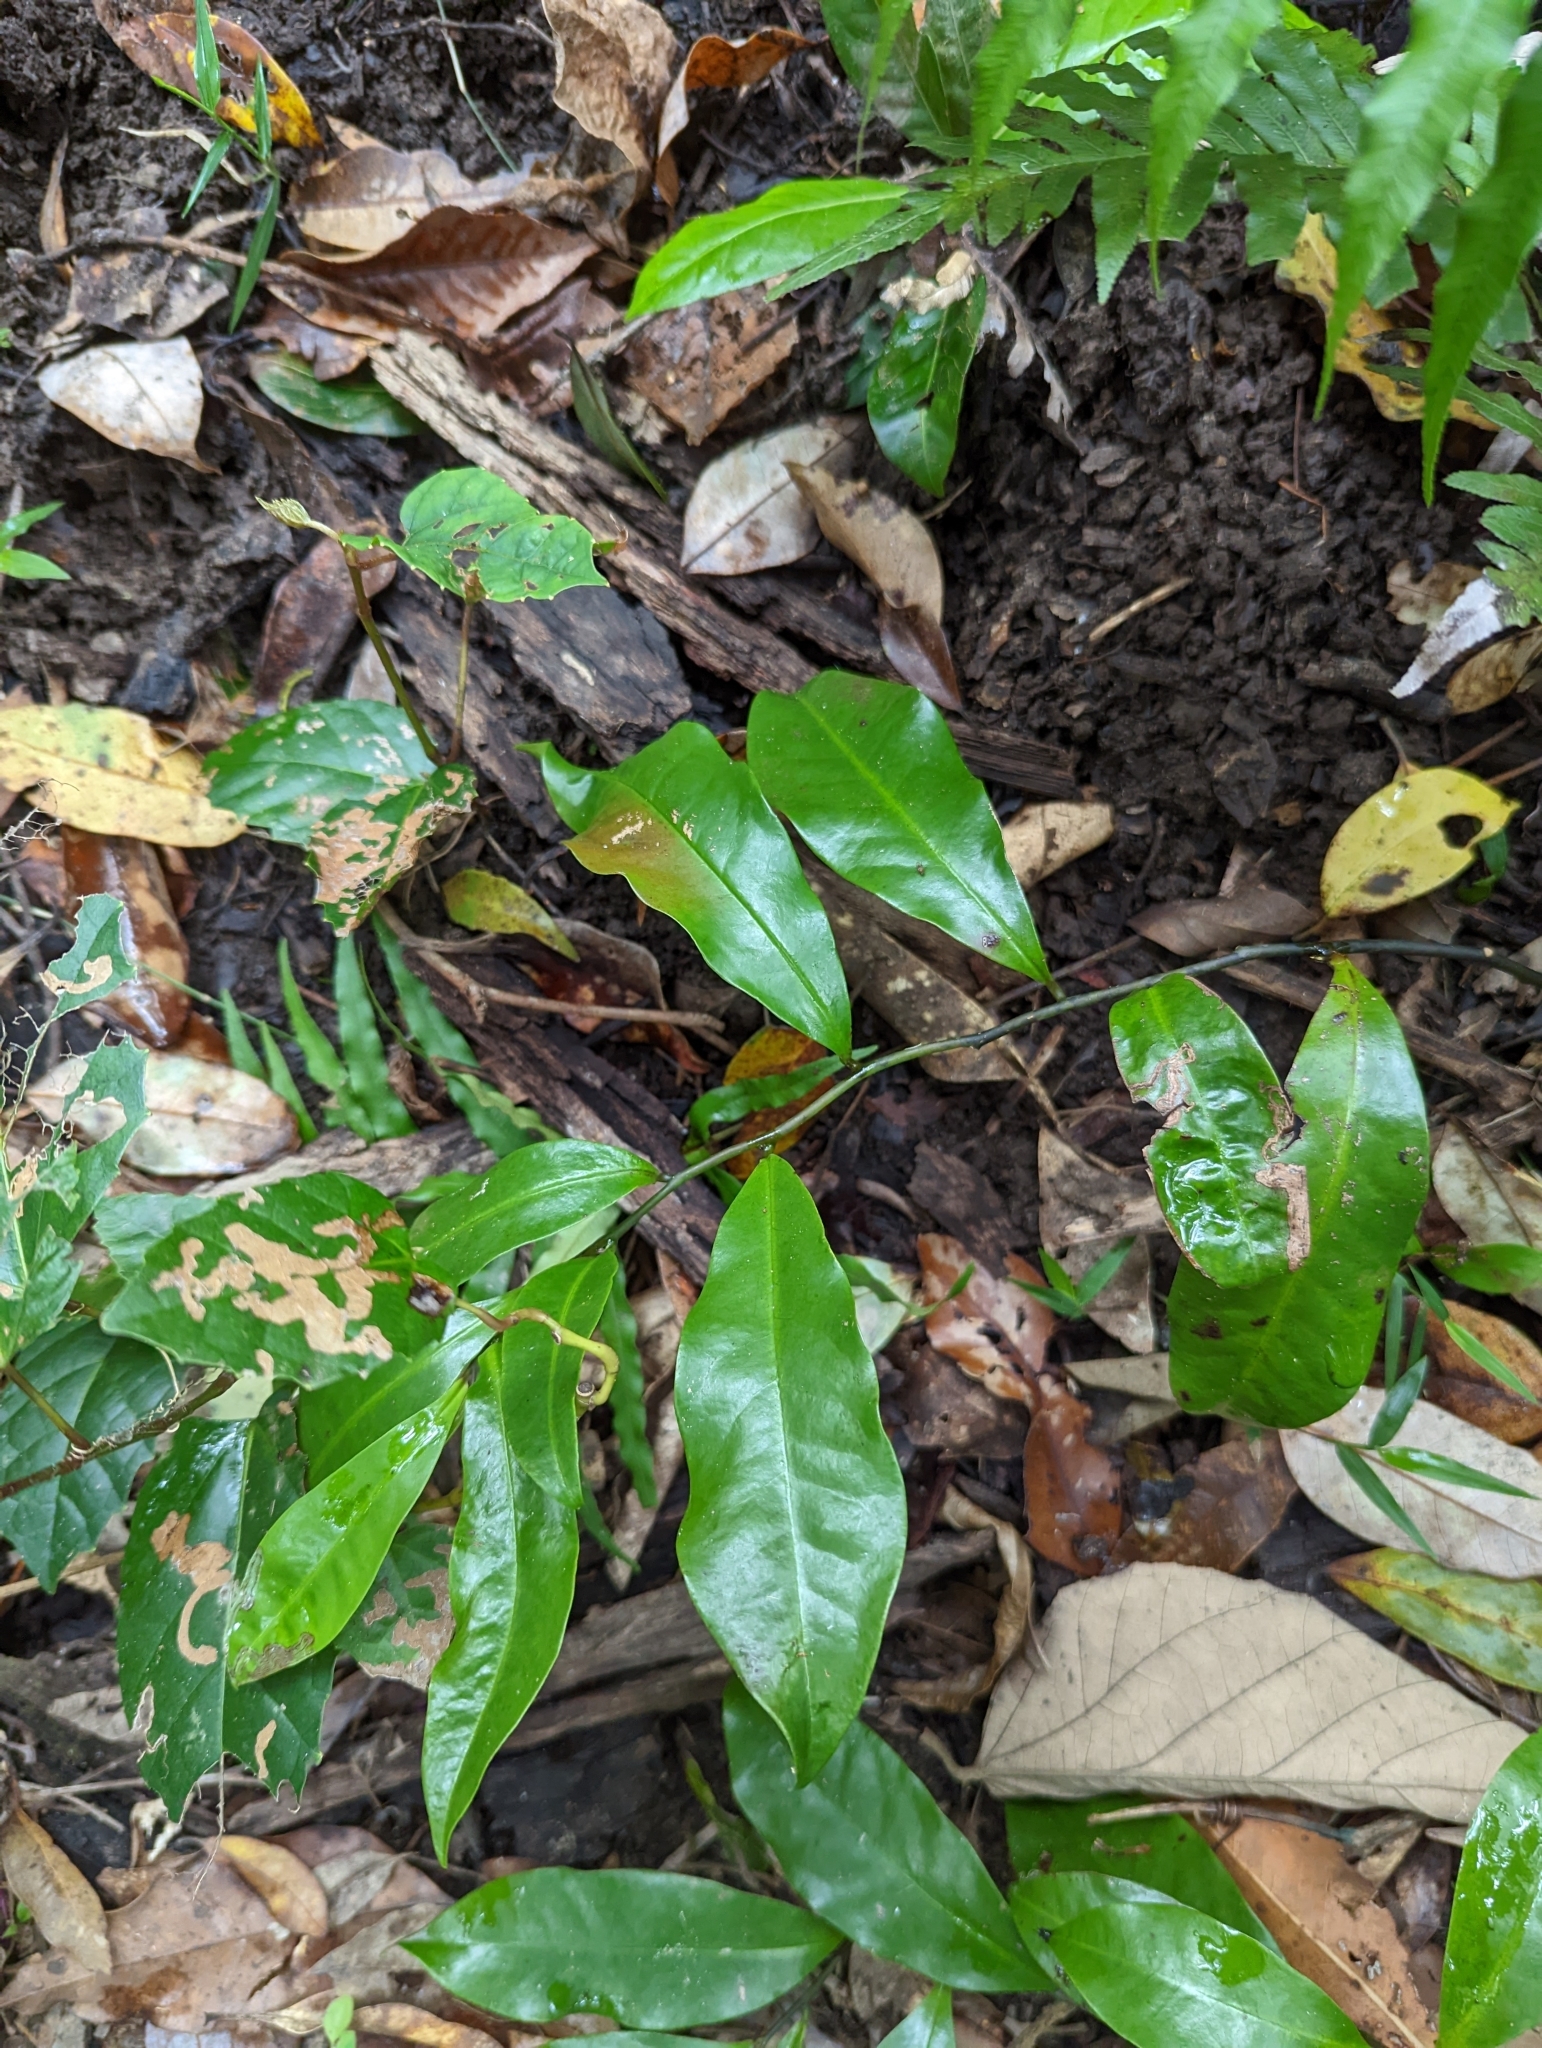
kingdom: Plantae
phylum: Tracheophyta
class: Magnoliopsida
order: Magnoliales
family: Eupomatiaceae
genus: Eupomatia
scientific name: Eupomatia laurina
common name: Bolwarra
